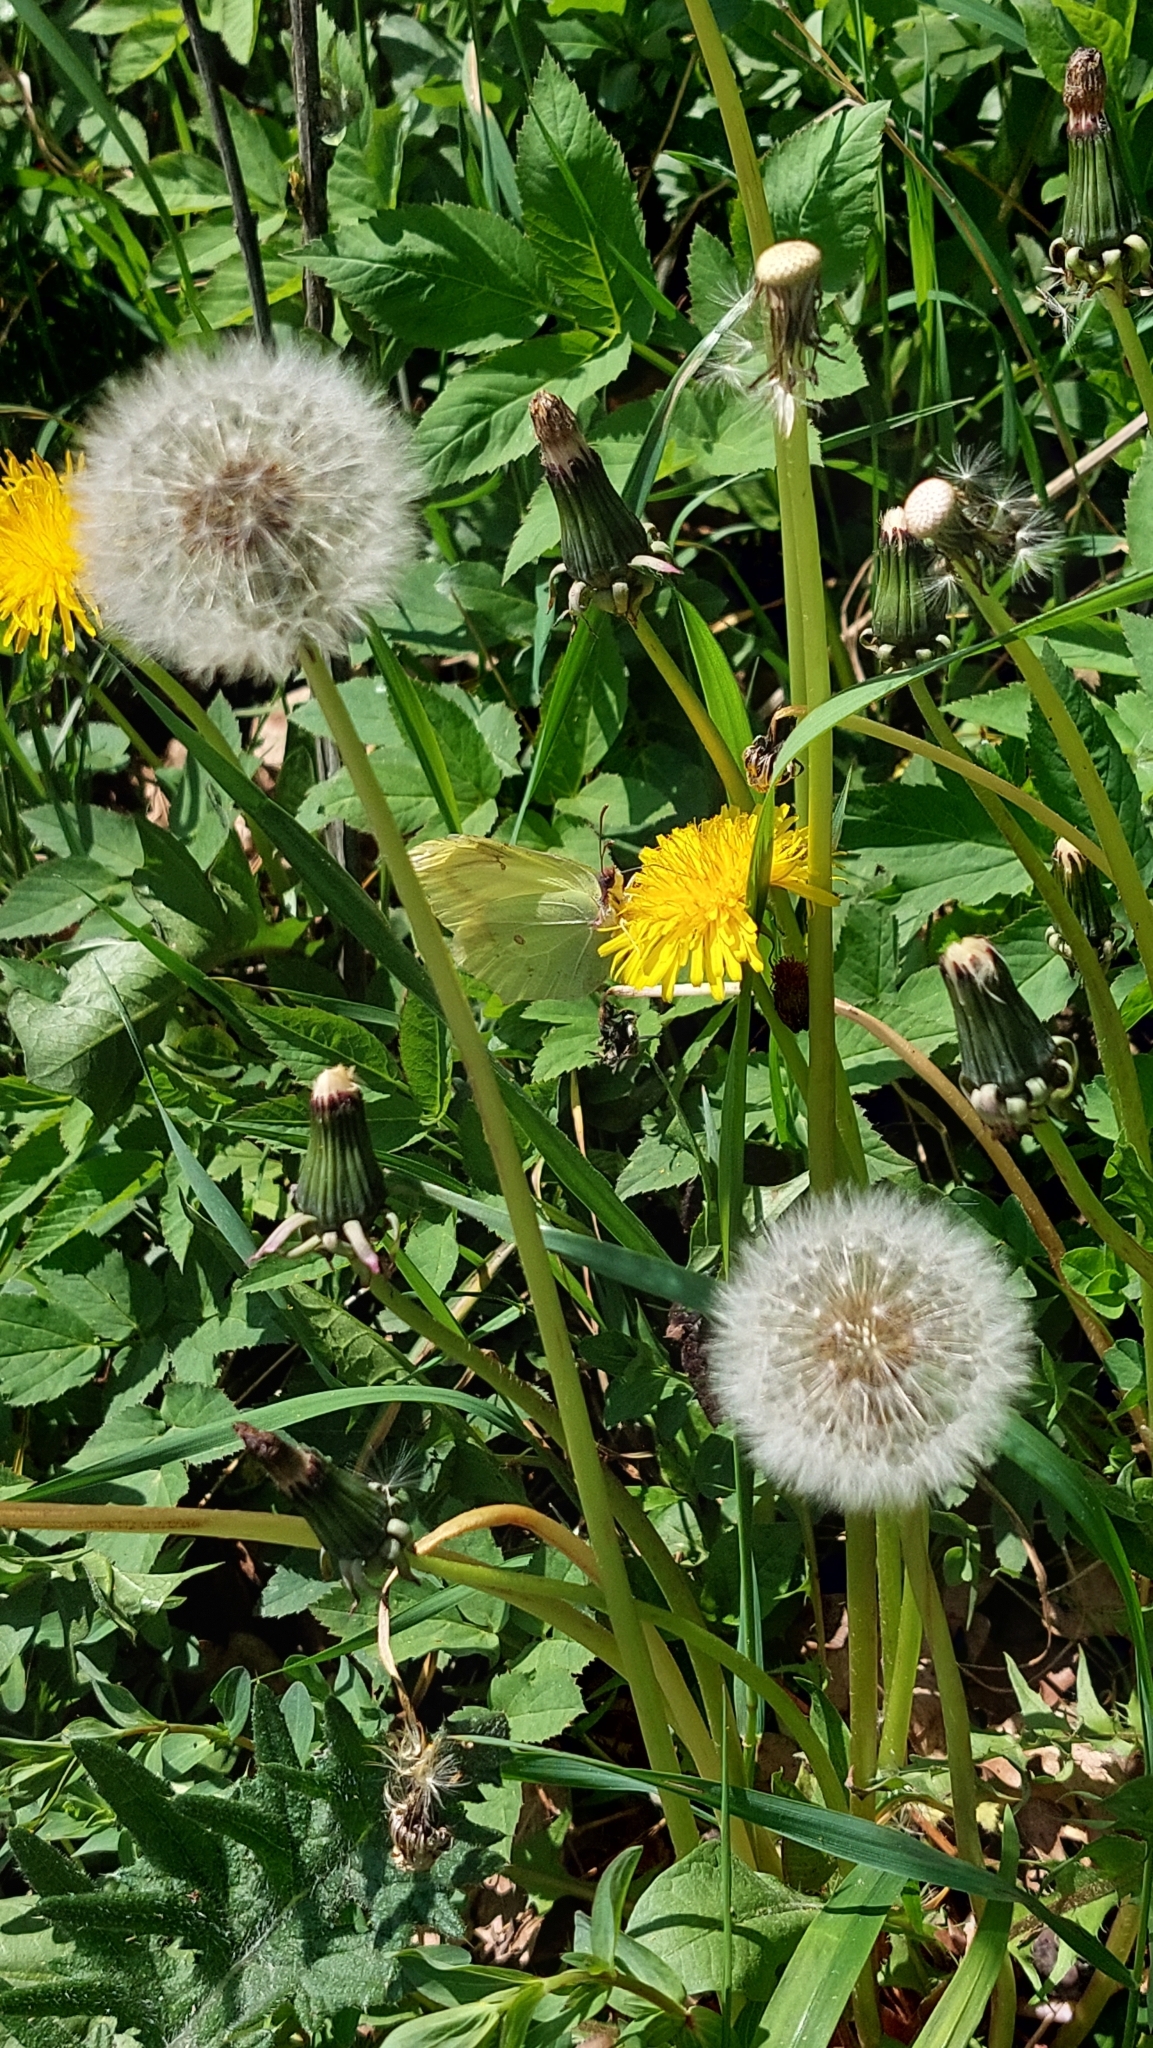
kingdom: Animalia
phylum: Arthropoda
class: Insecta
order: Lepidoptera
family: Pieridae
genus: Gonepteryx
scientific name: Gonepteryx rhamni
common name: Brimstone
